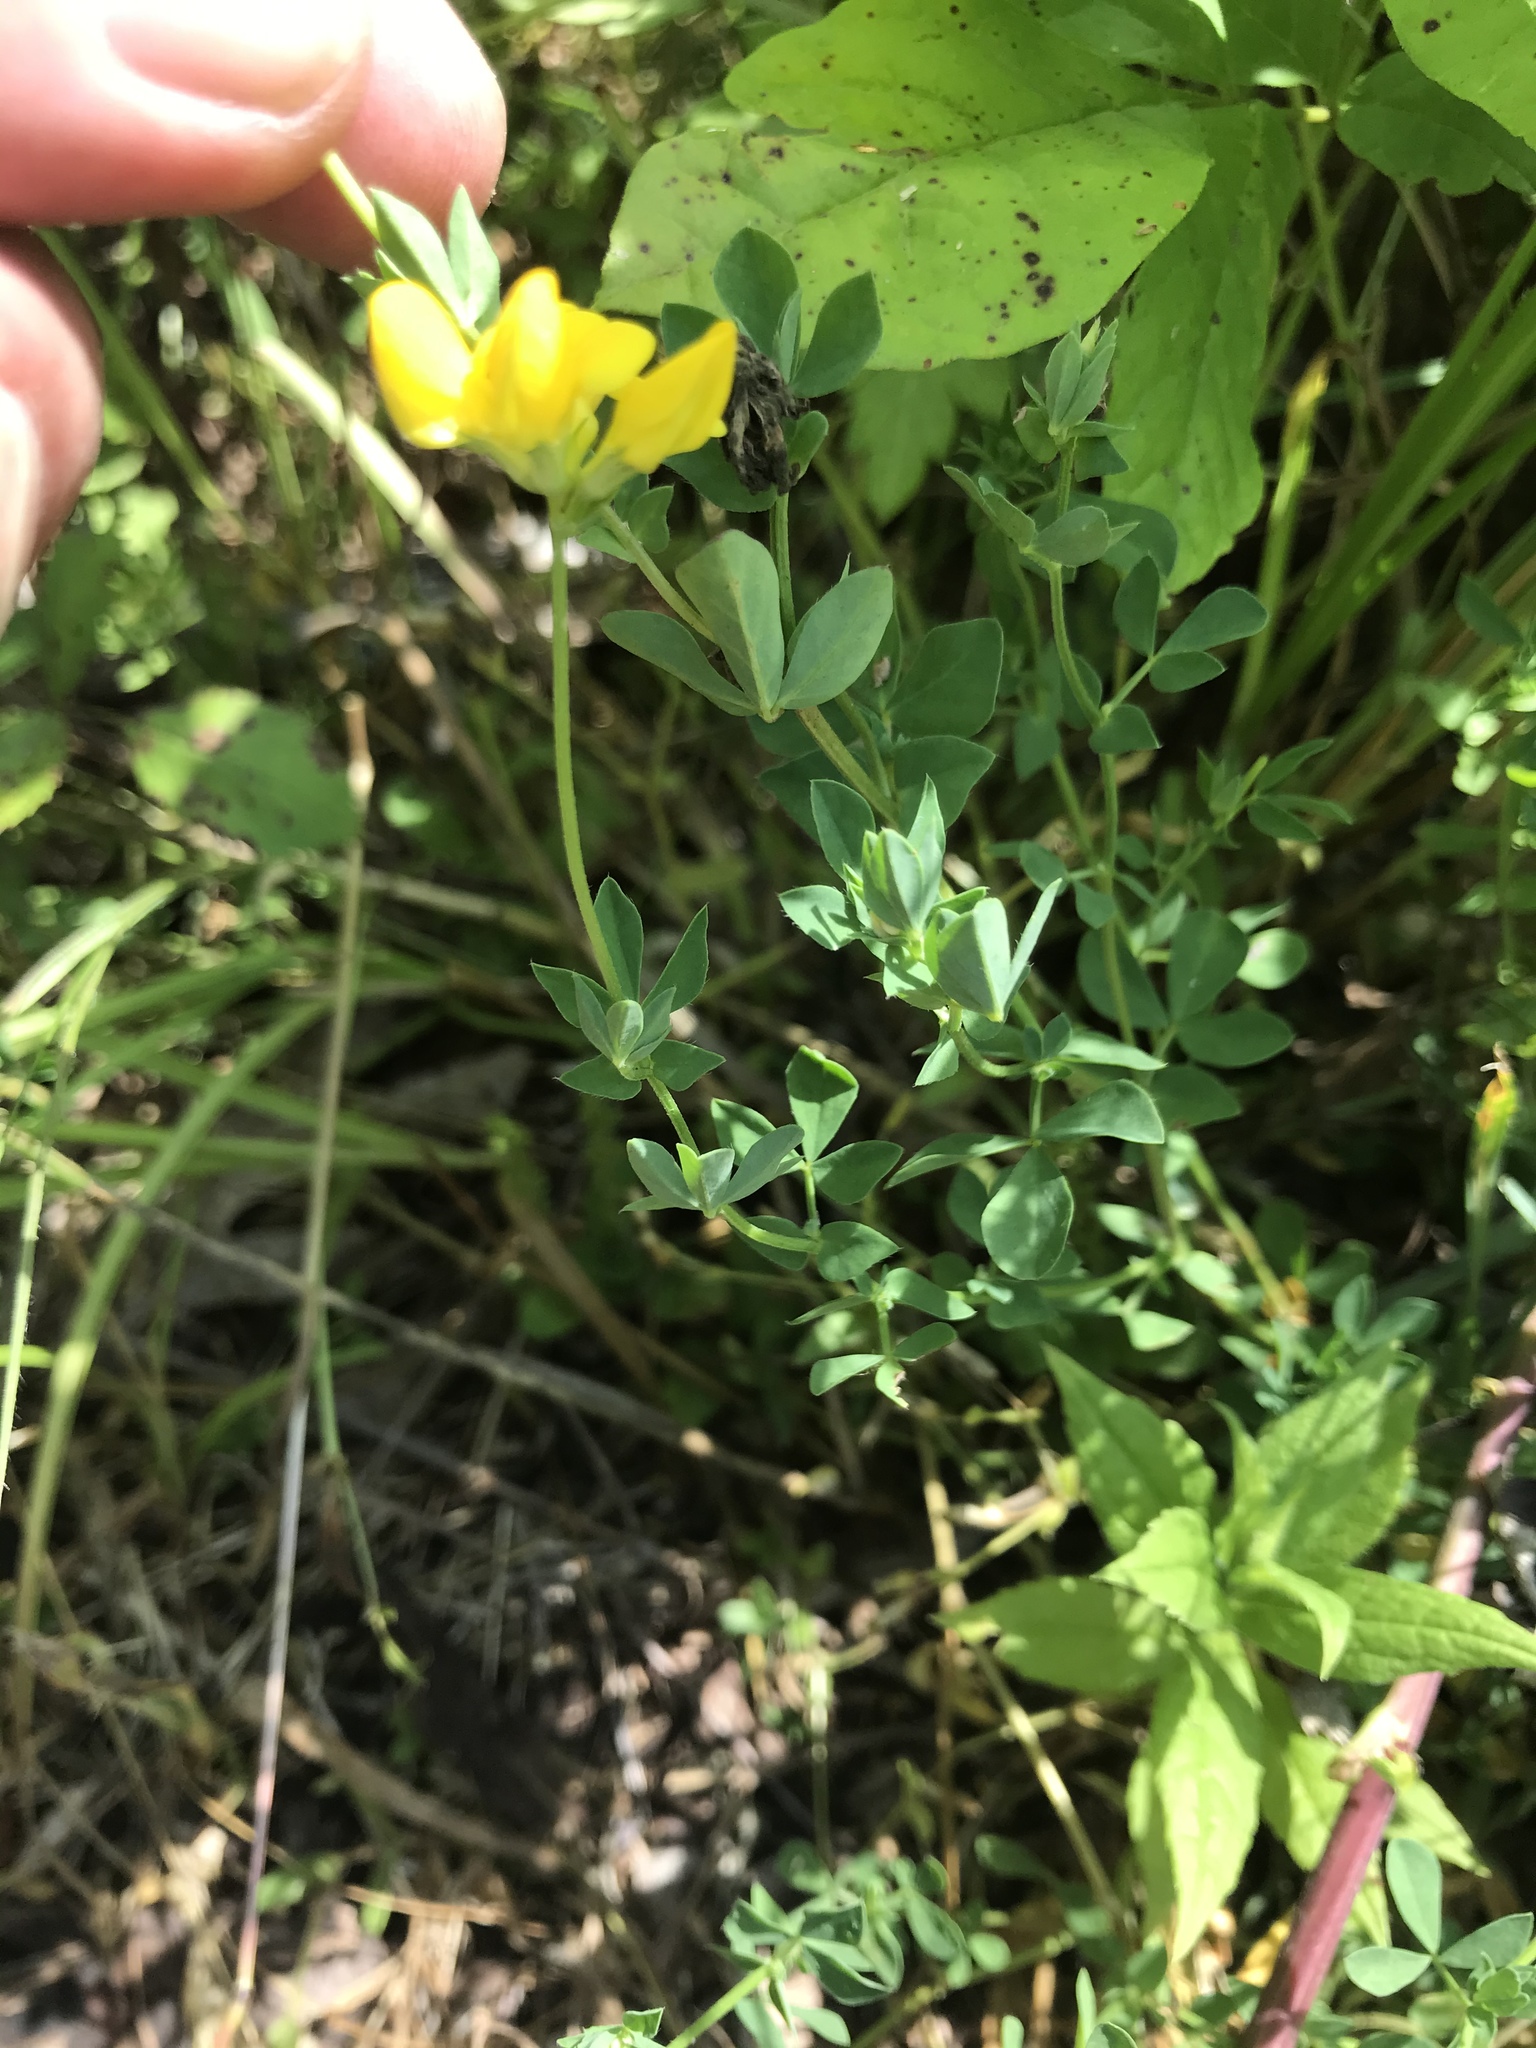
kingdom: Plantae
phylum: Tracheophyta
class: Magnoliopsida
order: Fabales
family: Fabaceae
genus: Lotus
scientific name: Lotus corniculatus
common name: Common bird's-foot-trefoil
